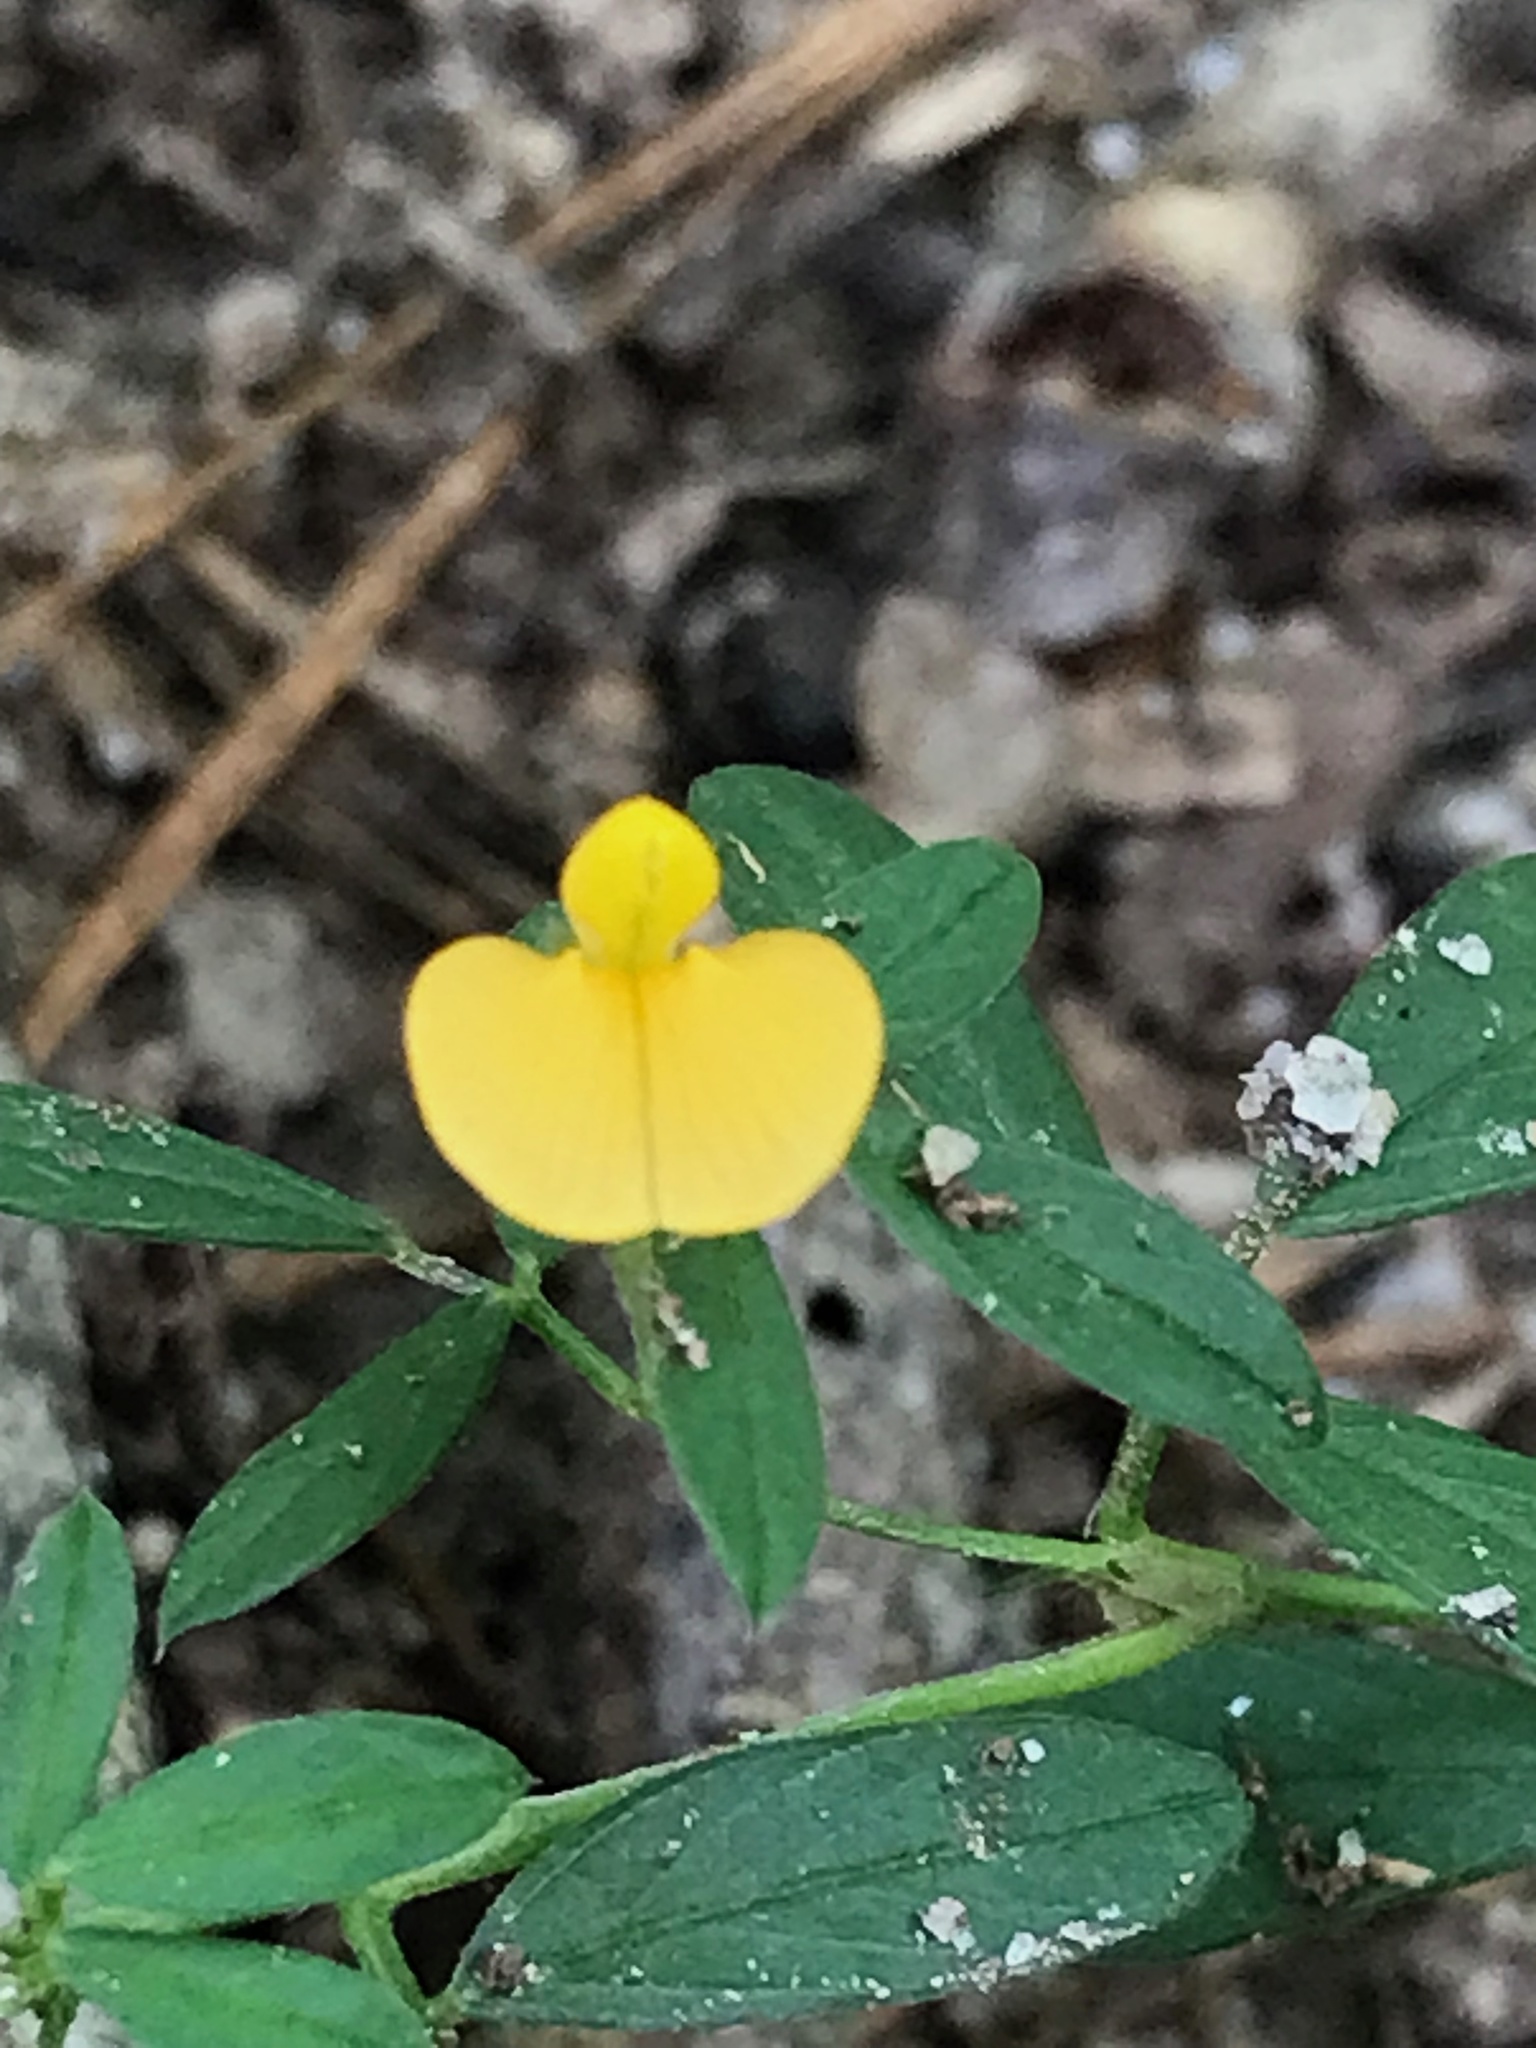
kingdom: Plantae
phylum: Tracheophyta
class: Magnoliopsida
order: Fabales
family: Fabaceae
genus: Stylosanthes
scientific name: Stylosanthes biflora
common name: Two-flower pencil-flower
